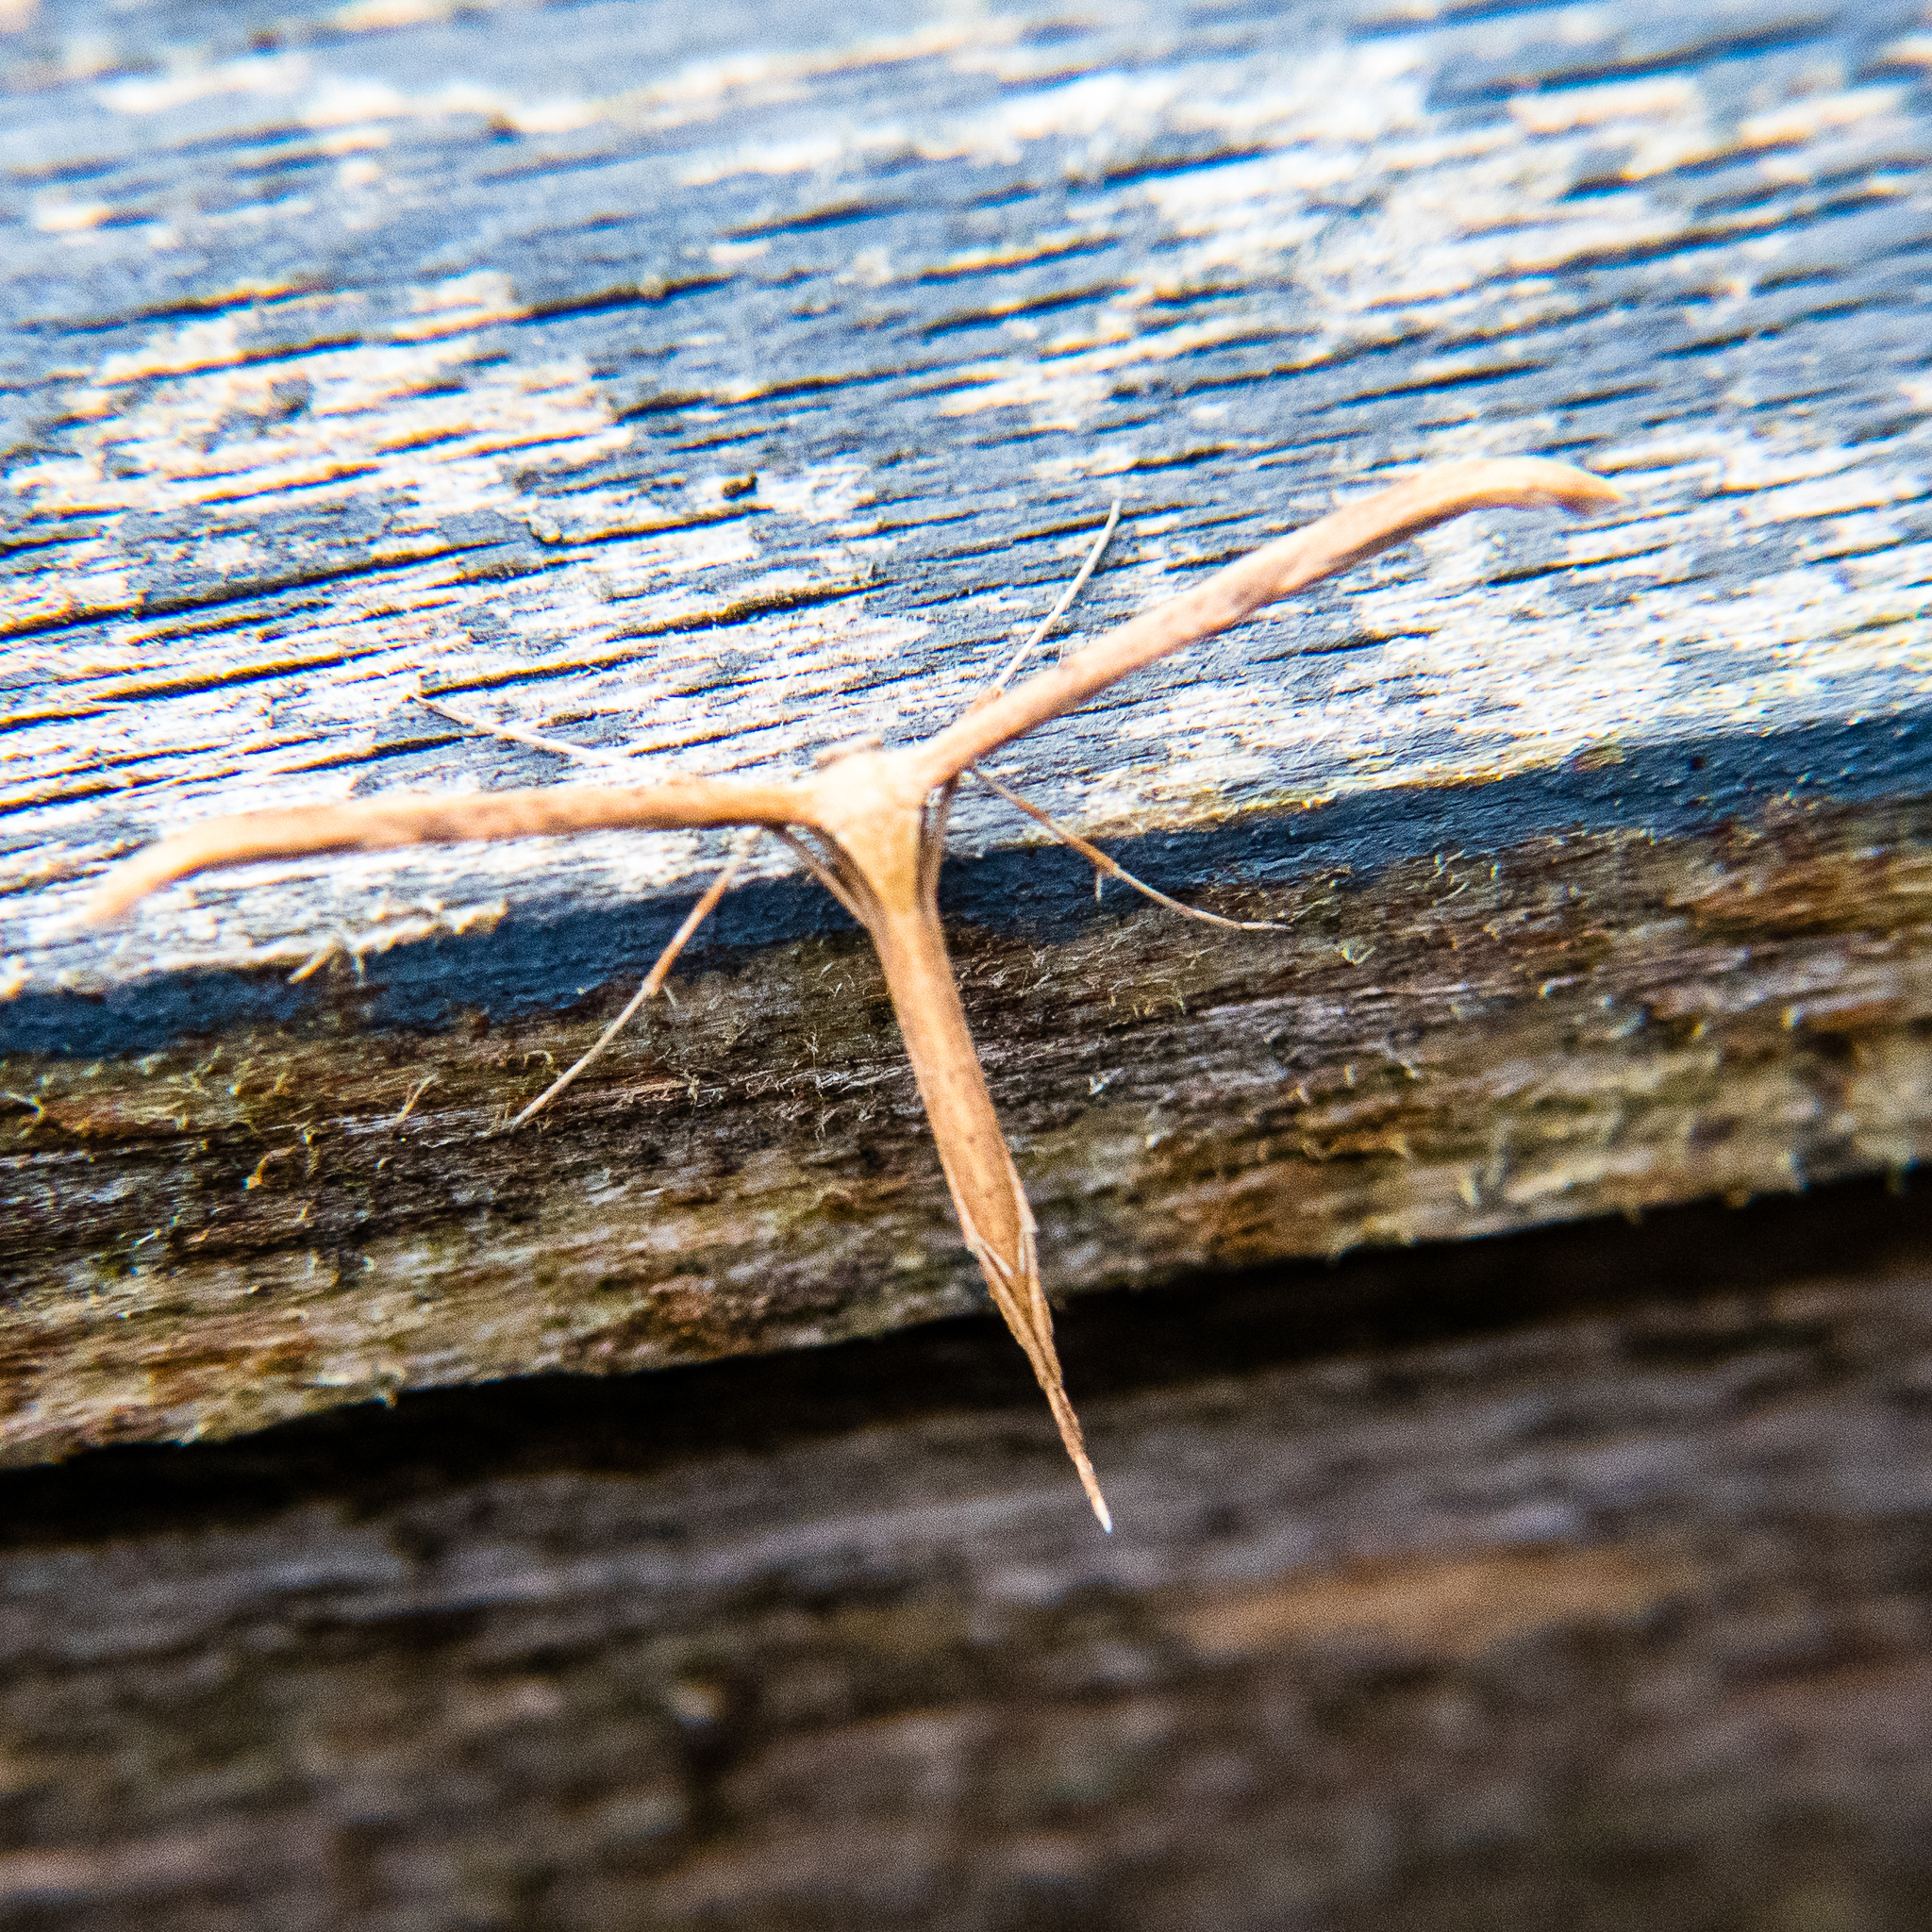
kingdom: Animalia
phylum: Arthropoda
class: Insecta
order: Lepidoptera
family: Pterophoridae
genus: Emmelina
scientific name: Emmelina monodactyla
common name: Common plume
